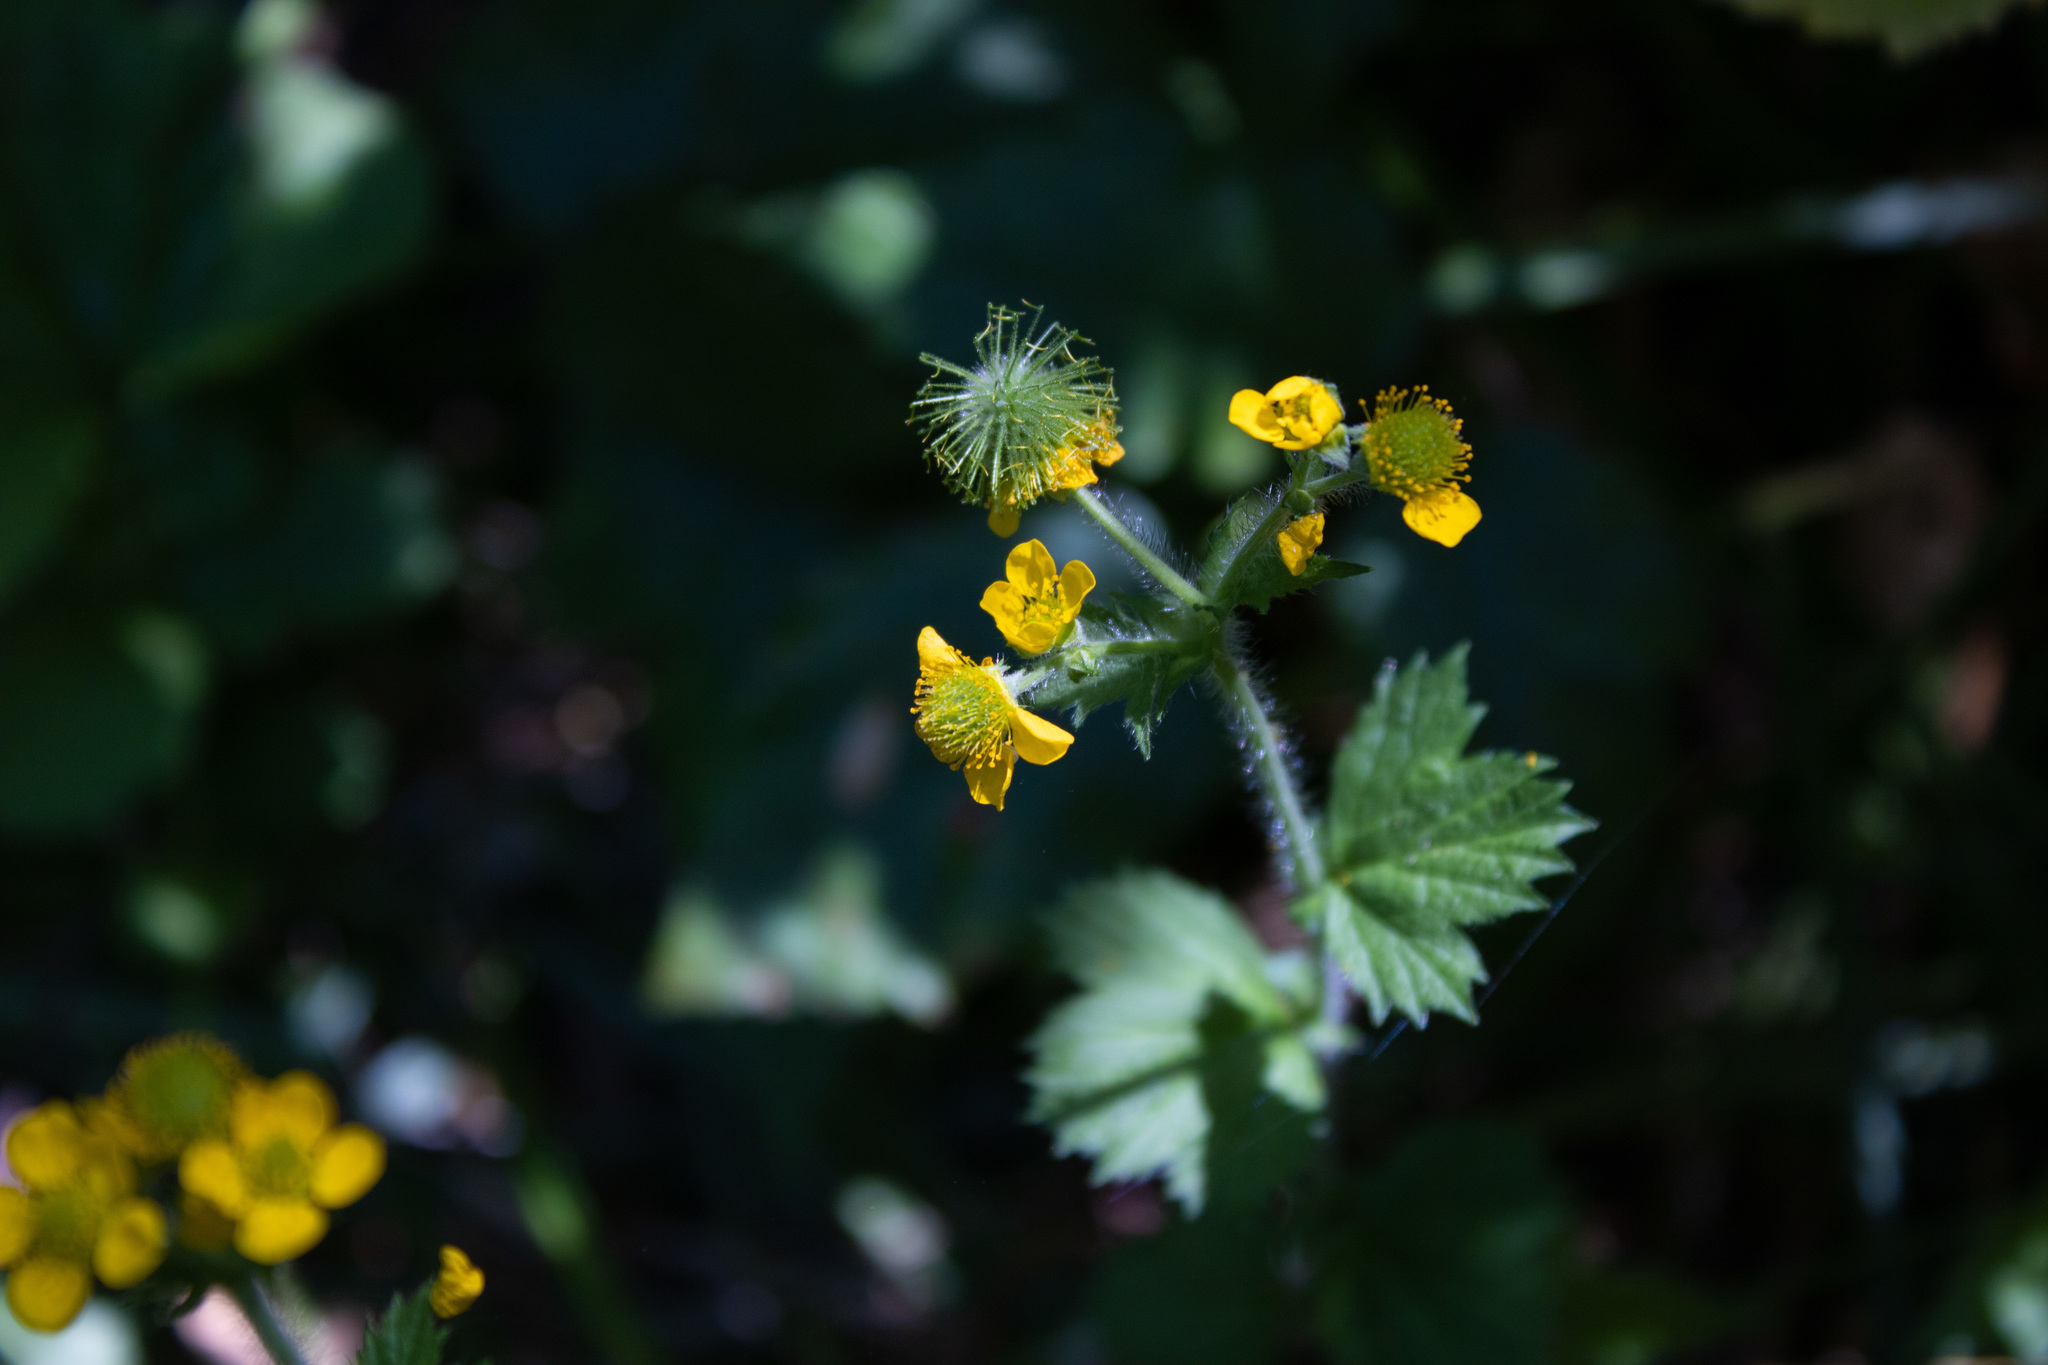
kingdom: Plantae
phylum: Tracheophyta
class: Magnoliopsida
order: Rosales
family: Rosaceae
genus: Geum
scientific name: Geum macrophyllum
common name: Large-leaved avens
